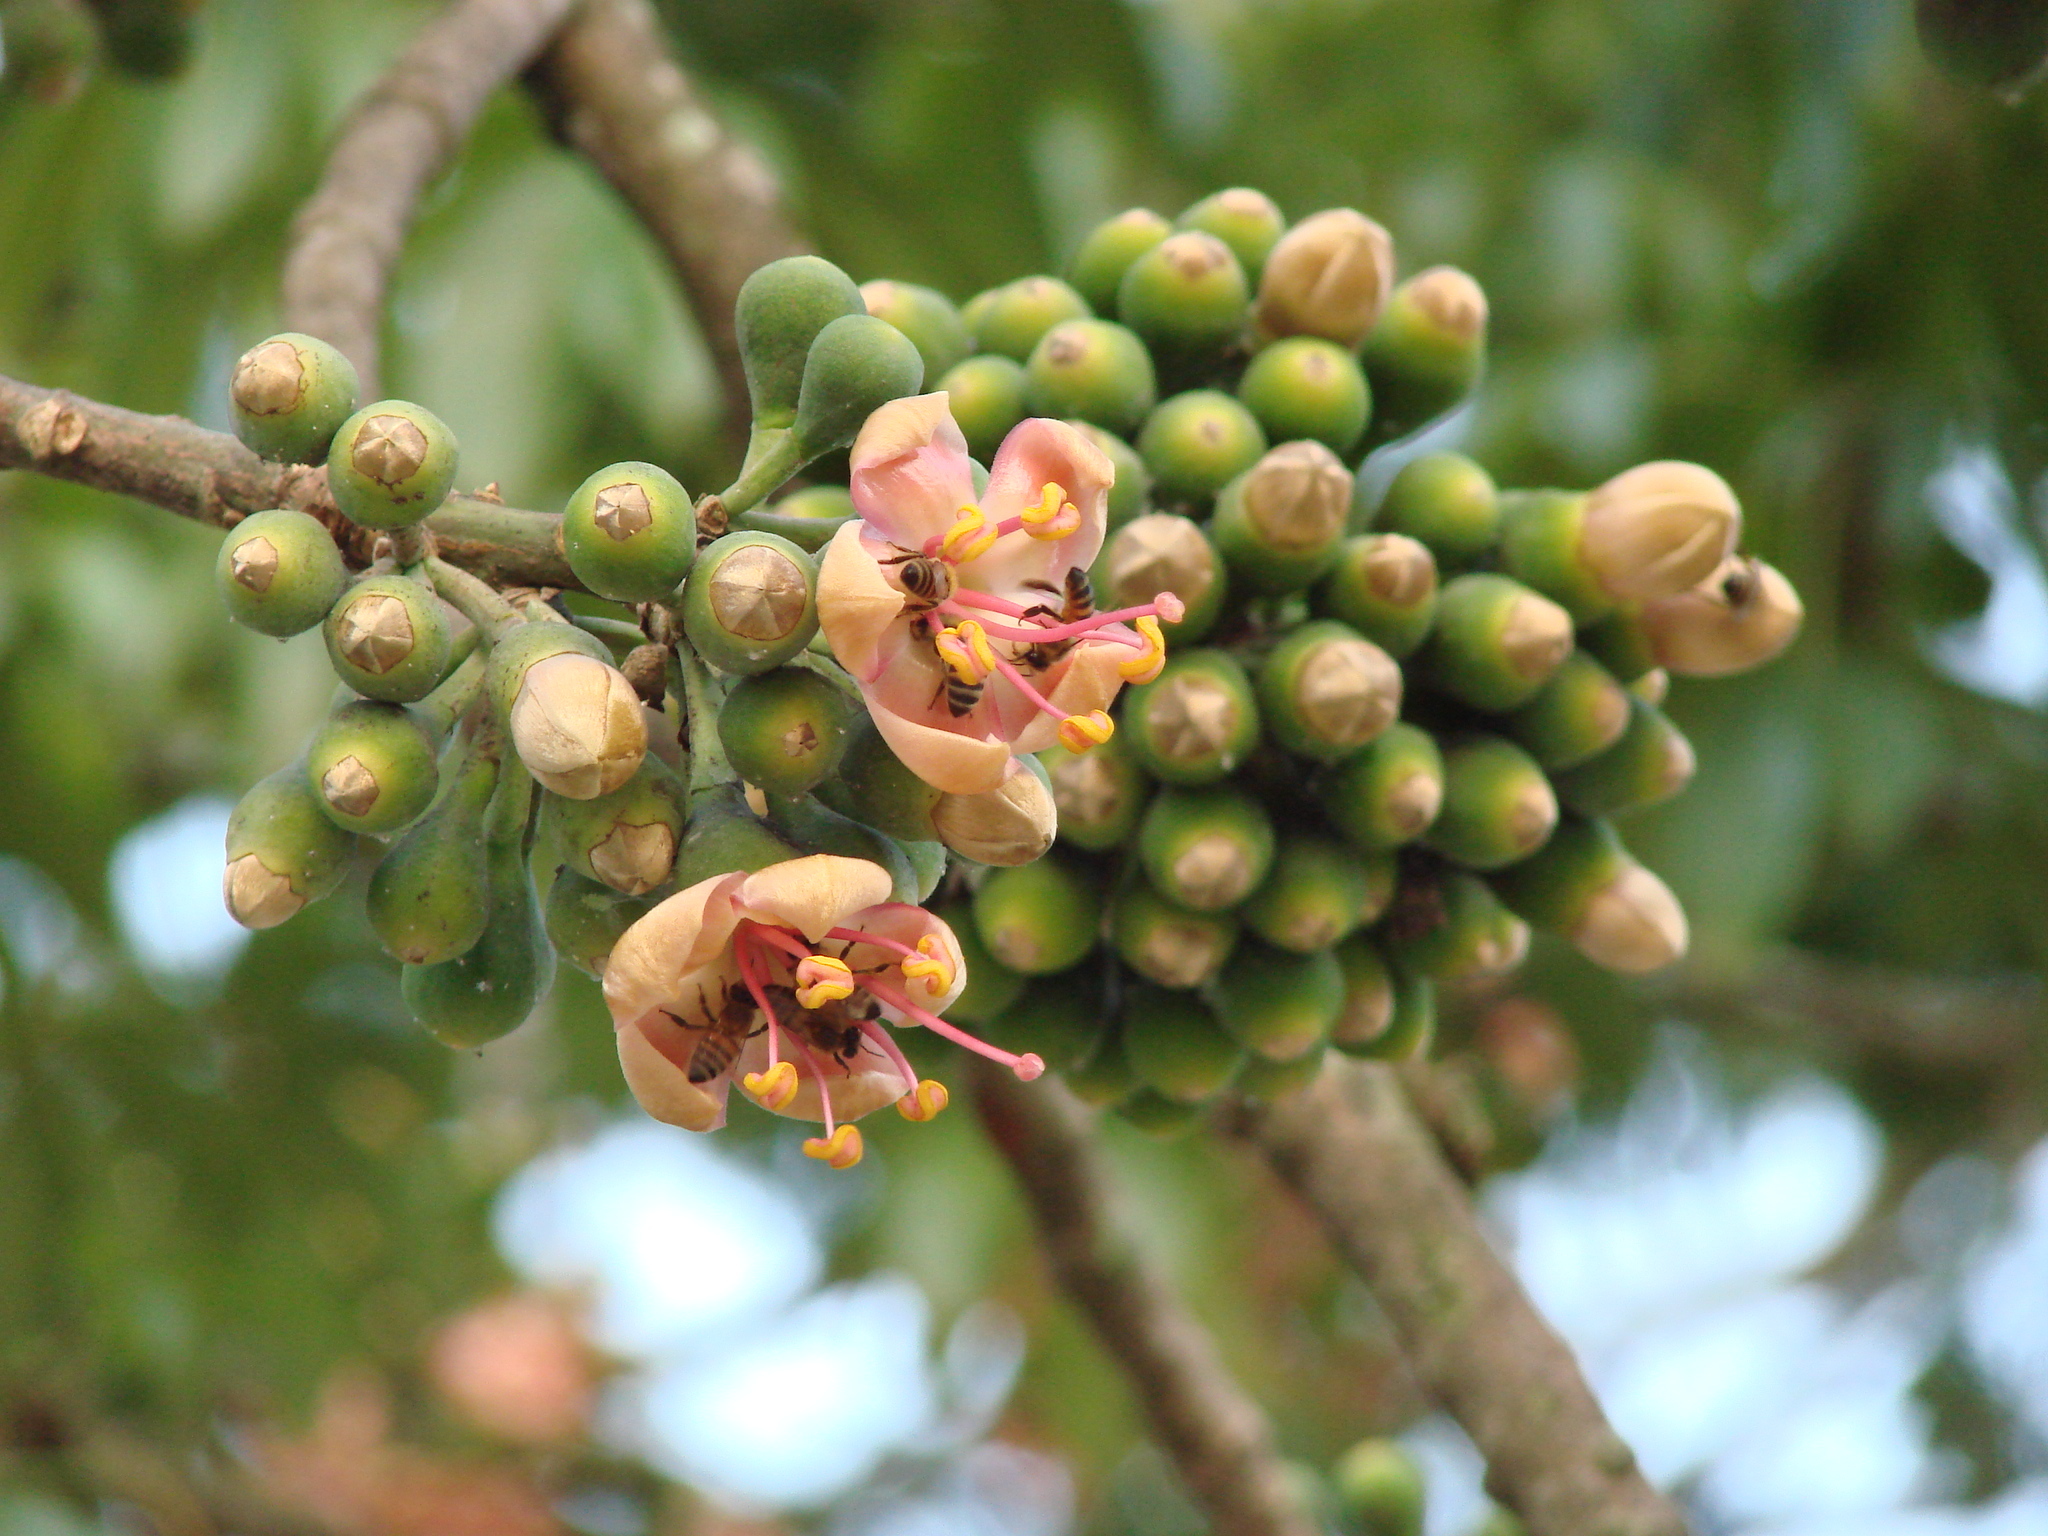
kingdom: Plantae
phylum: Tracheophyta
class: Magnoliopsida
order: Malvales
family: Malvaceae
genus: Ceiba
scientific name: Ceiba pentandra
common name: Kapok
